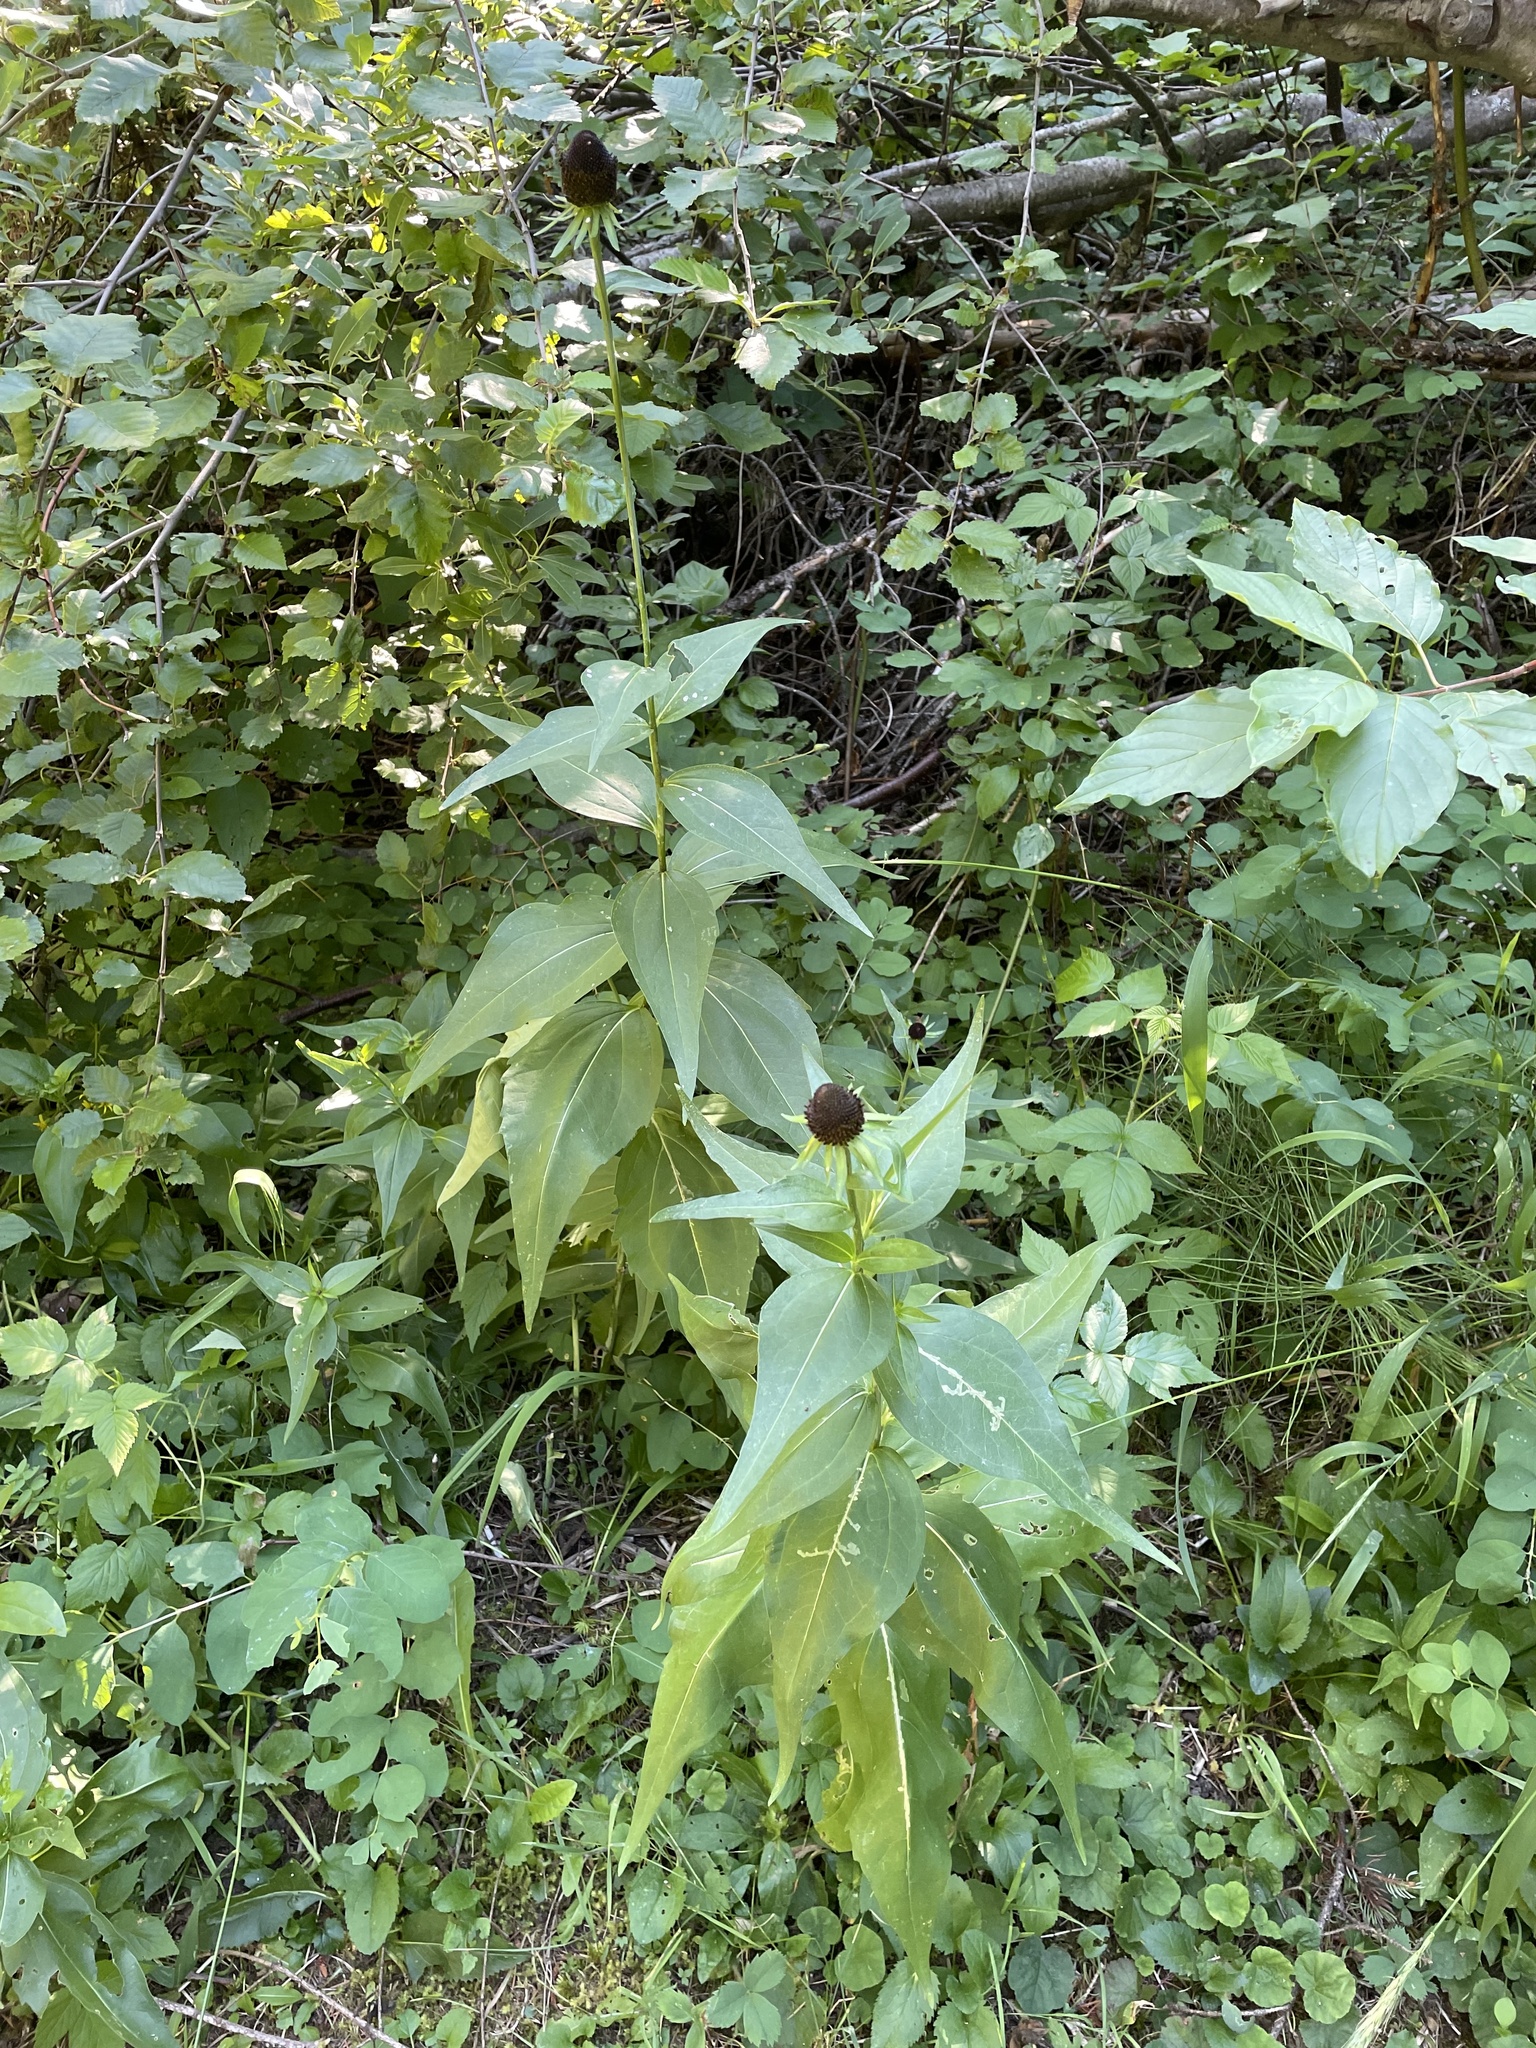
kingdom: Plantae
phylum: Tracheophyta
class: Magnoliopsida
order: Asterales
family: Asteraceae
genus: Rudbeckia
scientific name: Rudbeckia occidentalis
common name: Western coneflower
